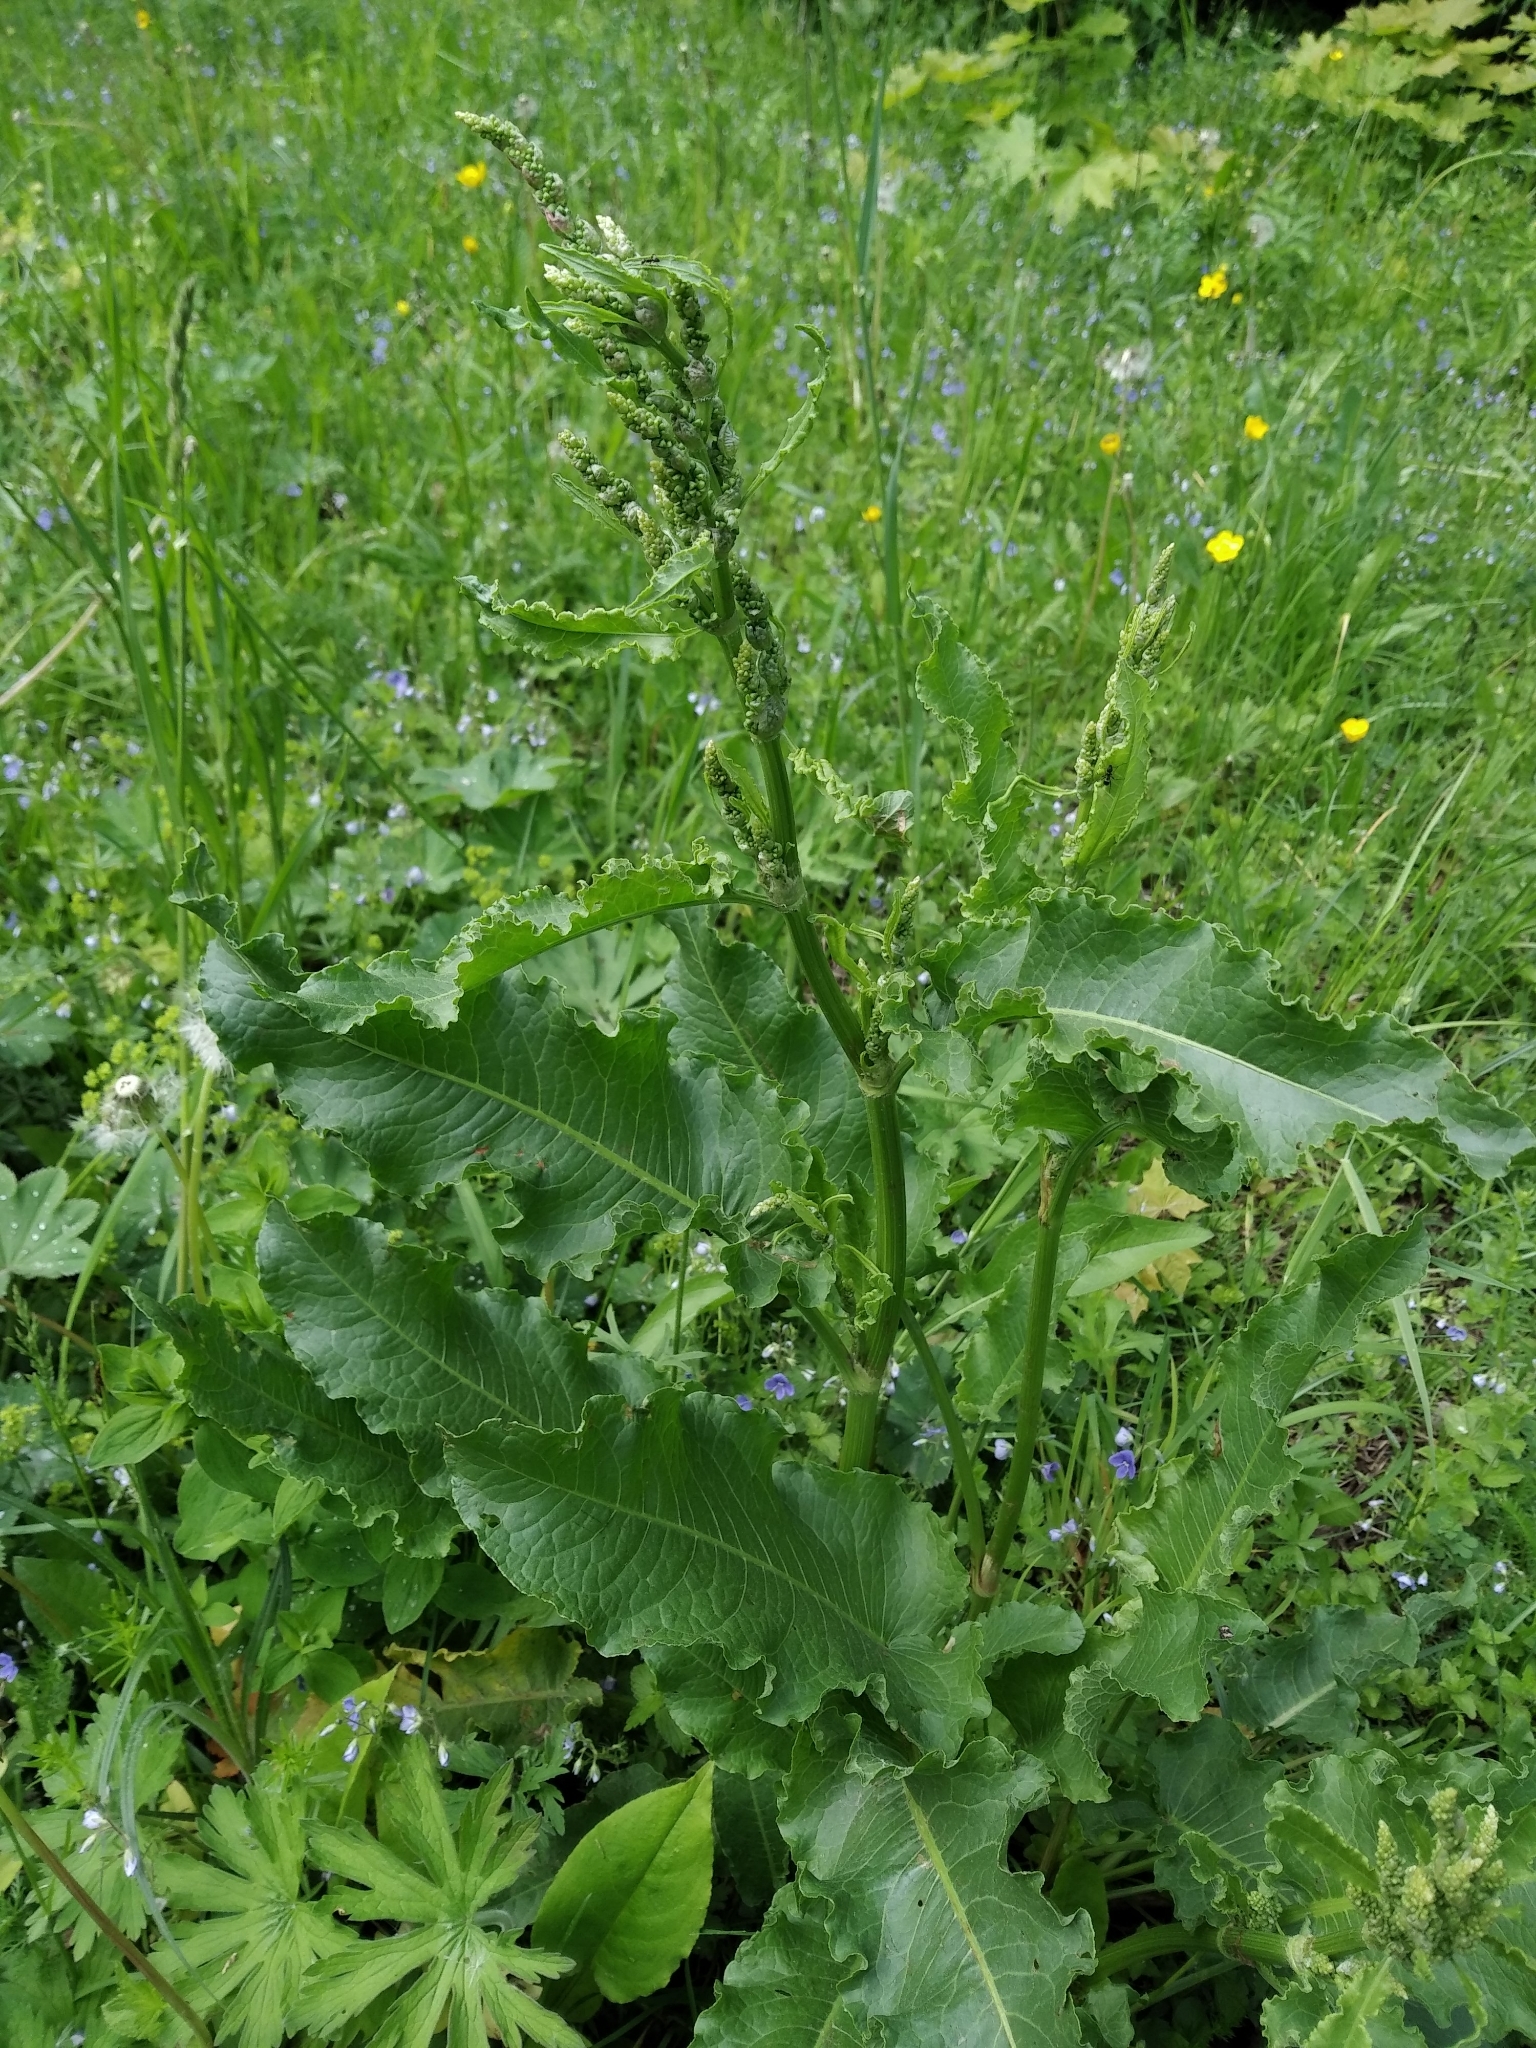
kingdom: Plantae
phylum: Tracheophyta
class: Magnoliopsida
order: Caryophyllales
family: Polygonaceae
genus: Rumex
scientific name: Rumex confertus
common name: Russian dock
